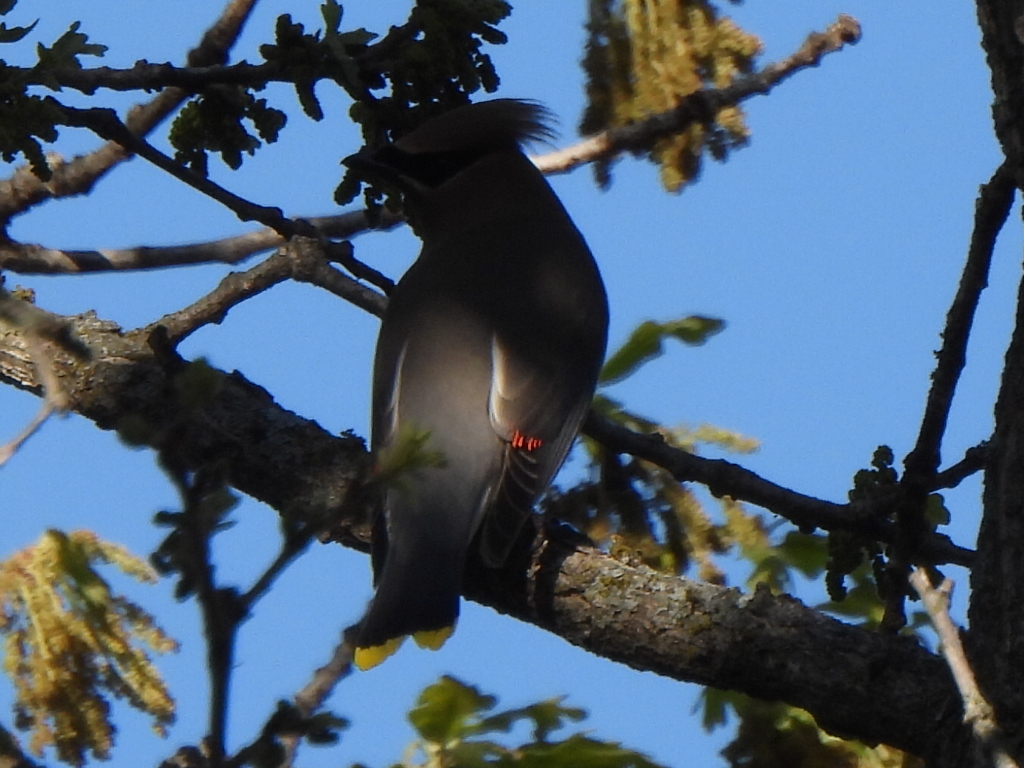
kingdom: Animalia
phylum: Chordata
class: Aves
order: Passeriformes
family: Bombycillidae
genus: Bombycilla
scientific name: Bombycilla cedrorum
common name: Cedar waxwing
